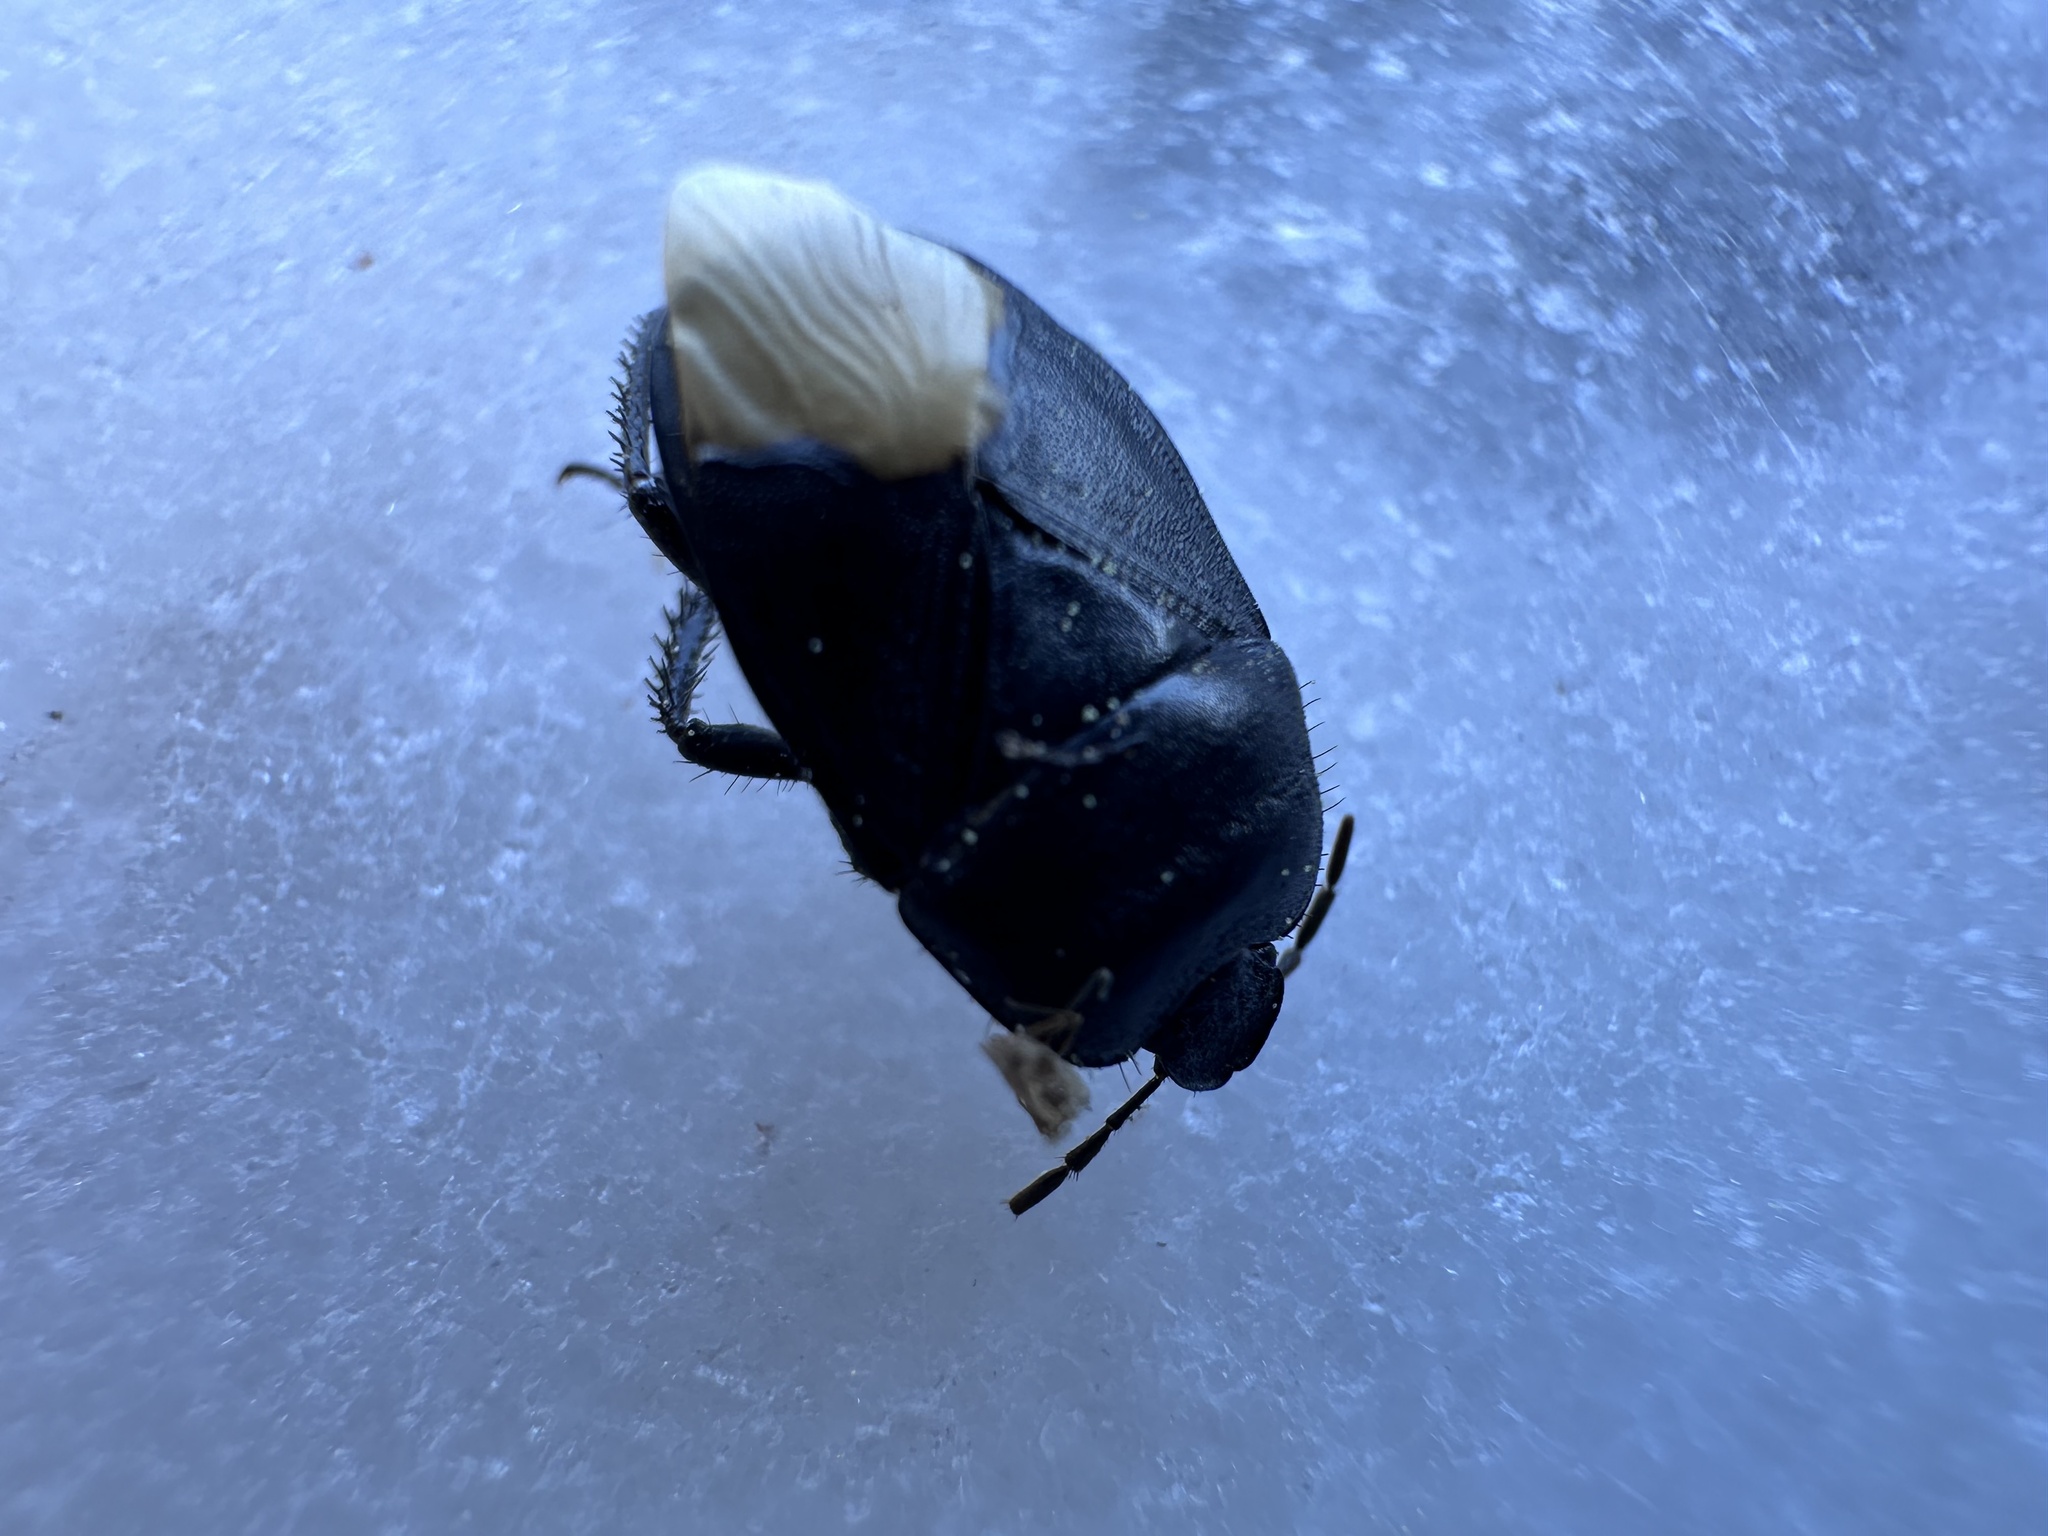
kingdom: Animalia
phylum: Arthropoda
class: Insecta
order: Hemiptera
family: Cydnidae
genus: Cydnus
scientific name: Cydnus aterrimus
